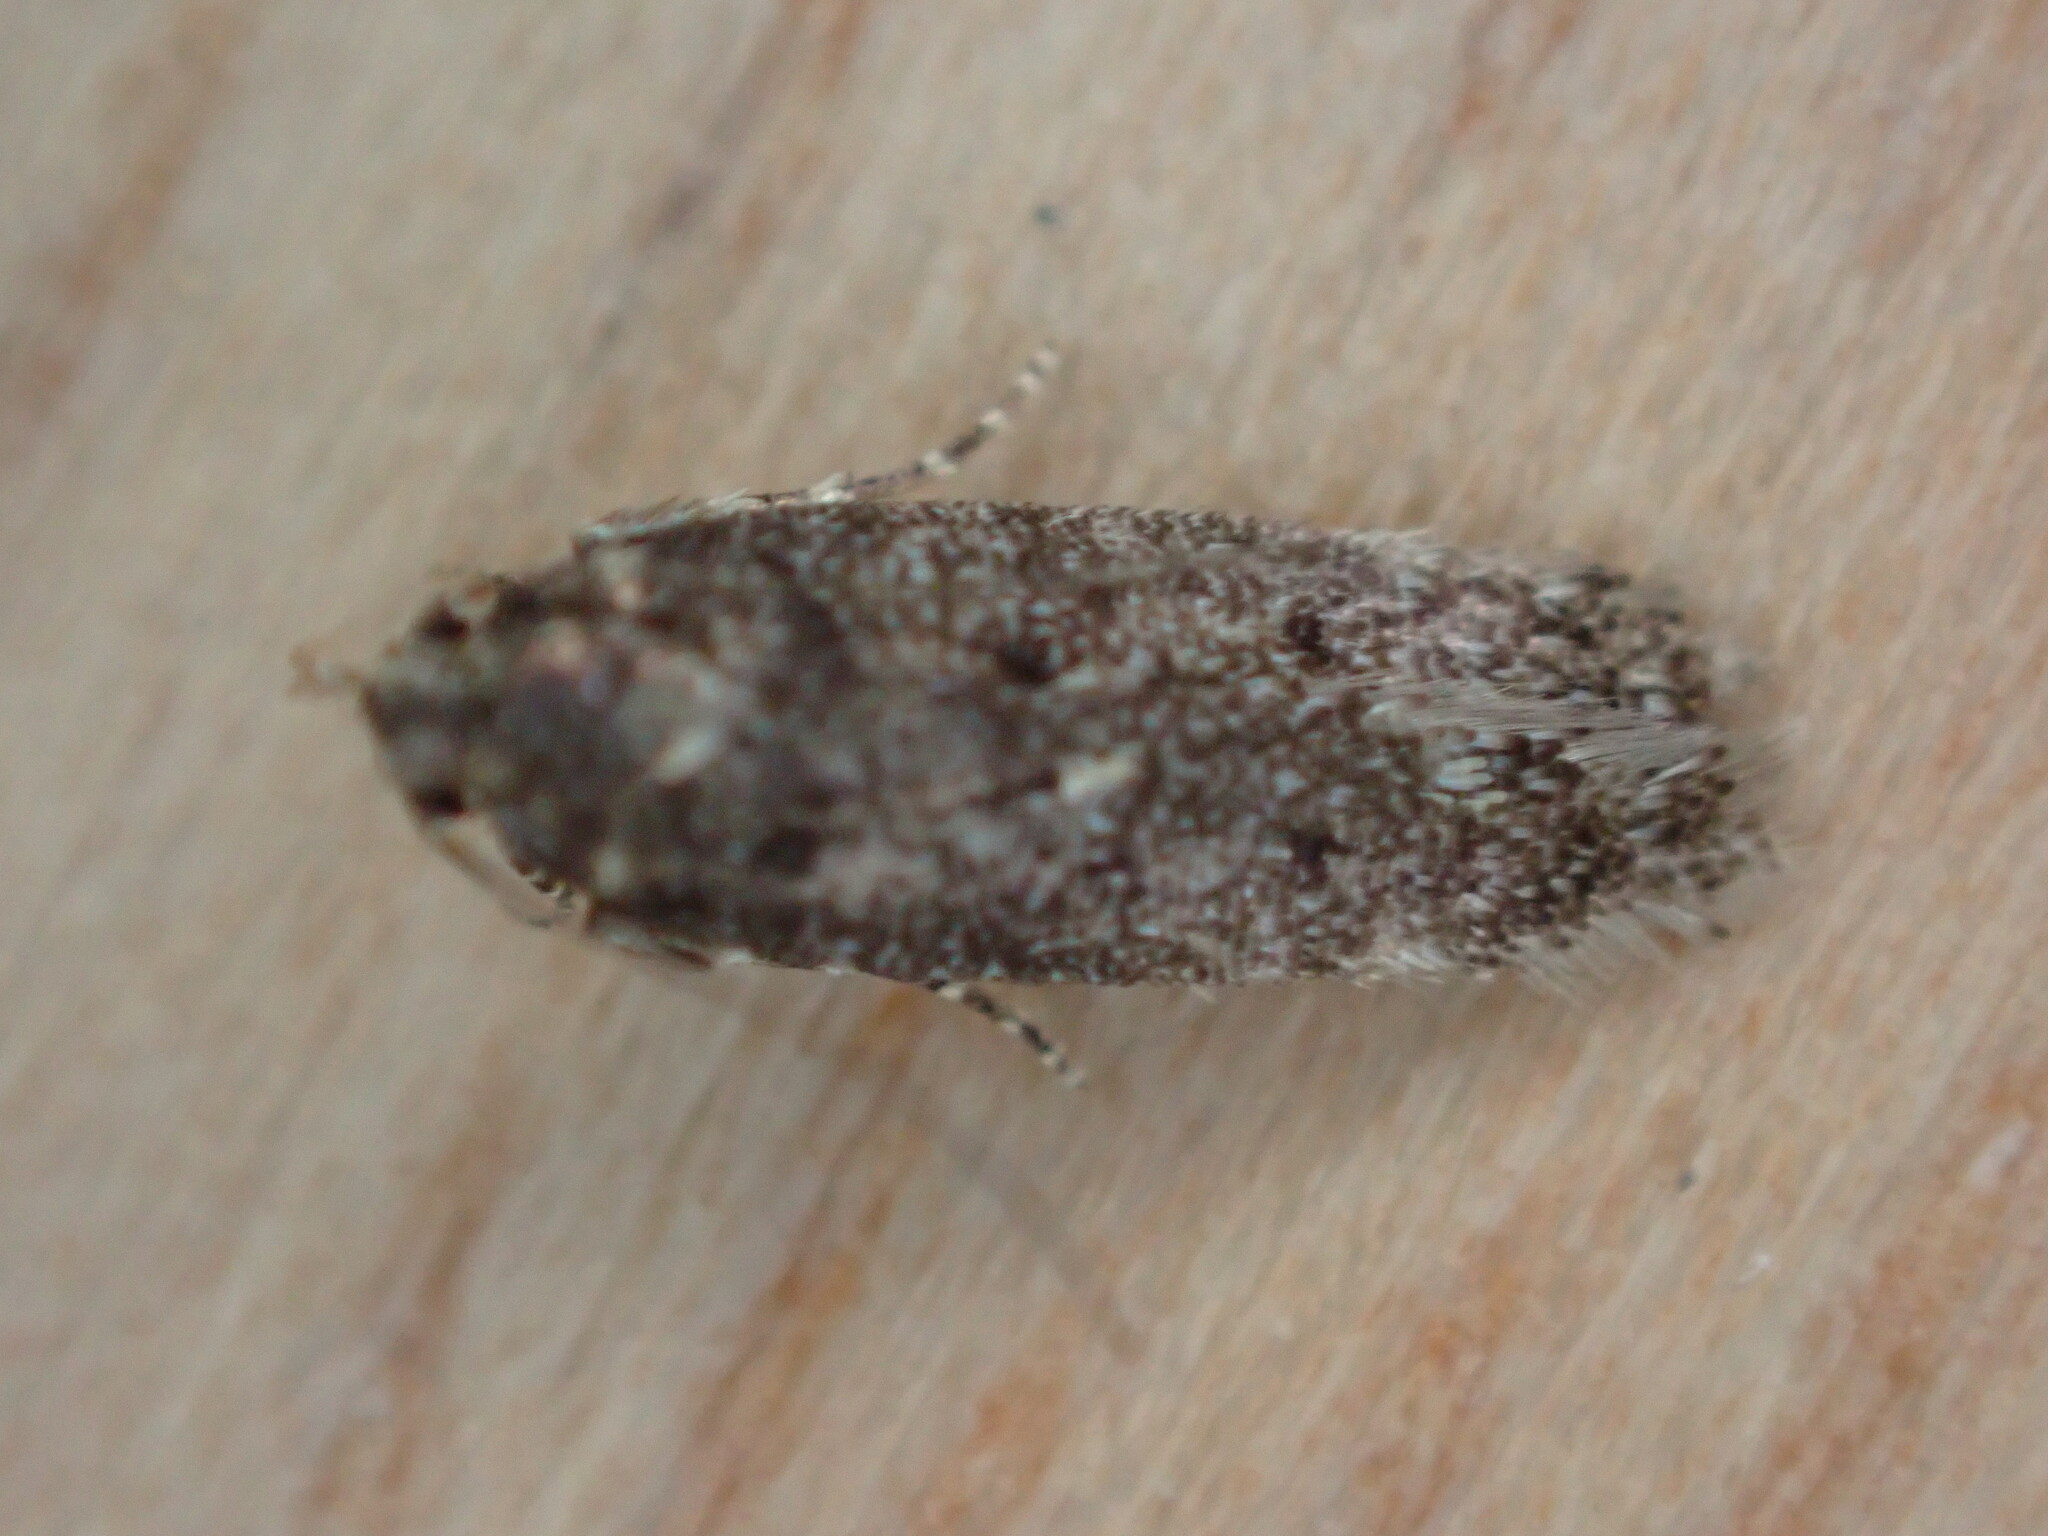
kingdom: Animalia
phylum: Arthropoda
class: Insecta
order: Lepidoptera
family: Gelechiidae
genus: Bryotropha
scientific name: Bryotropha affinis
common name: Dark groundling
